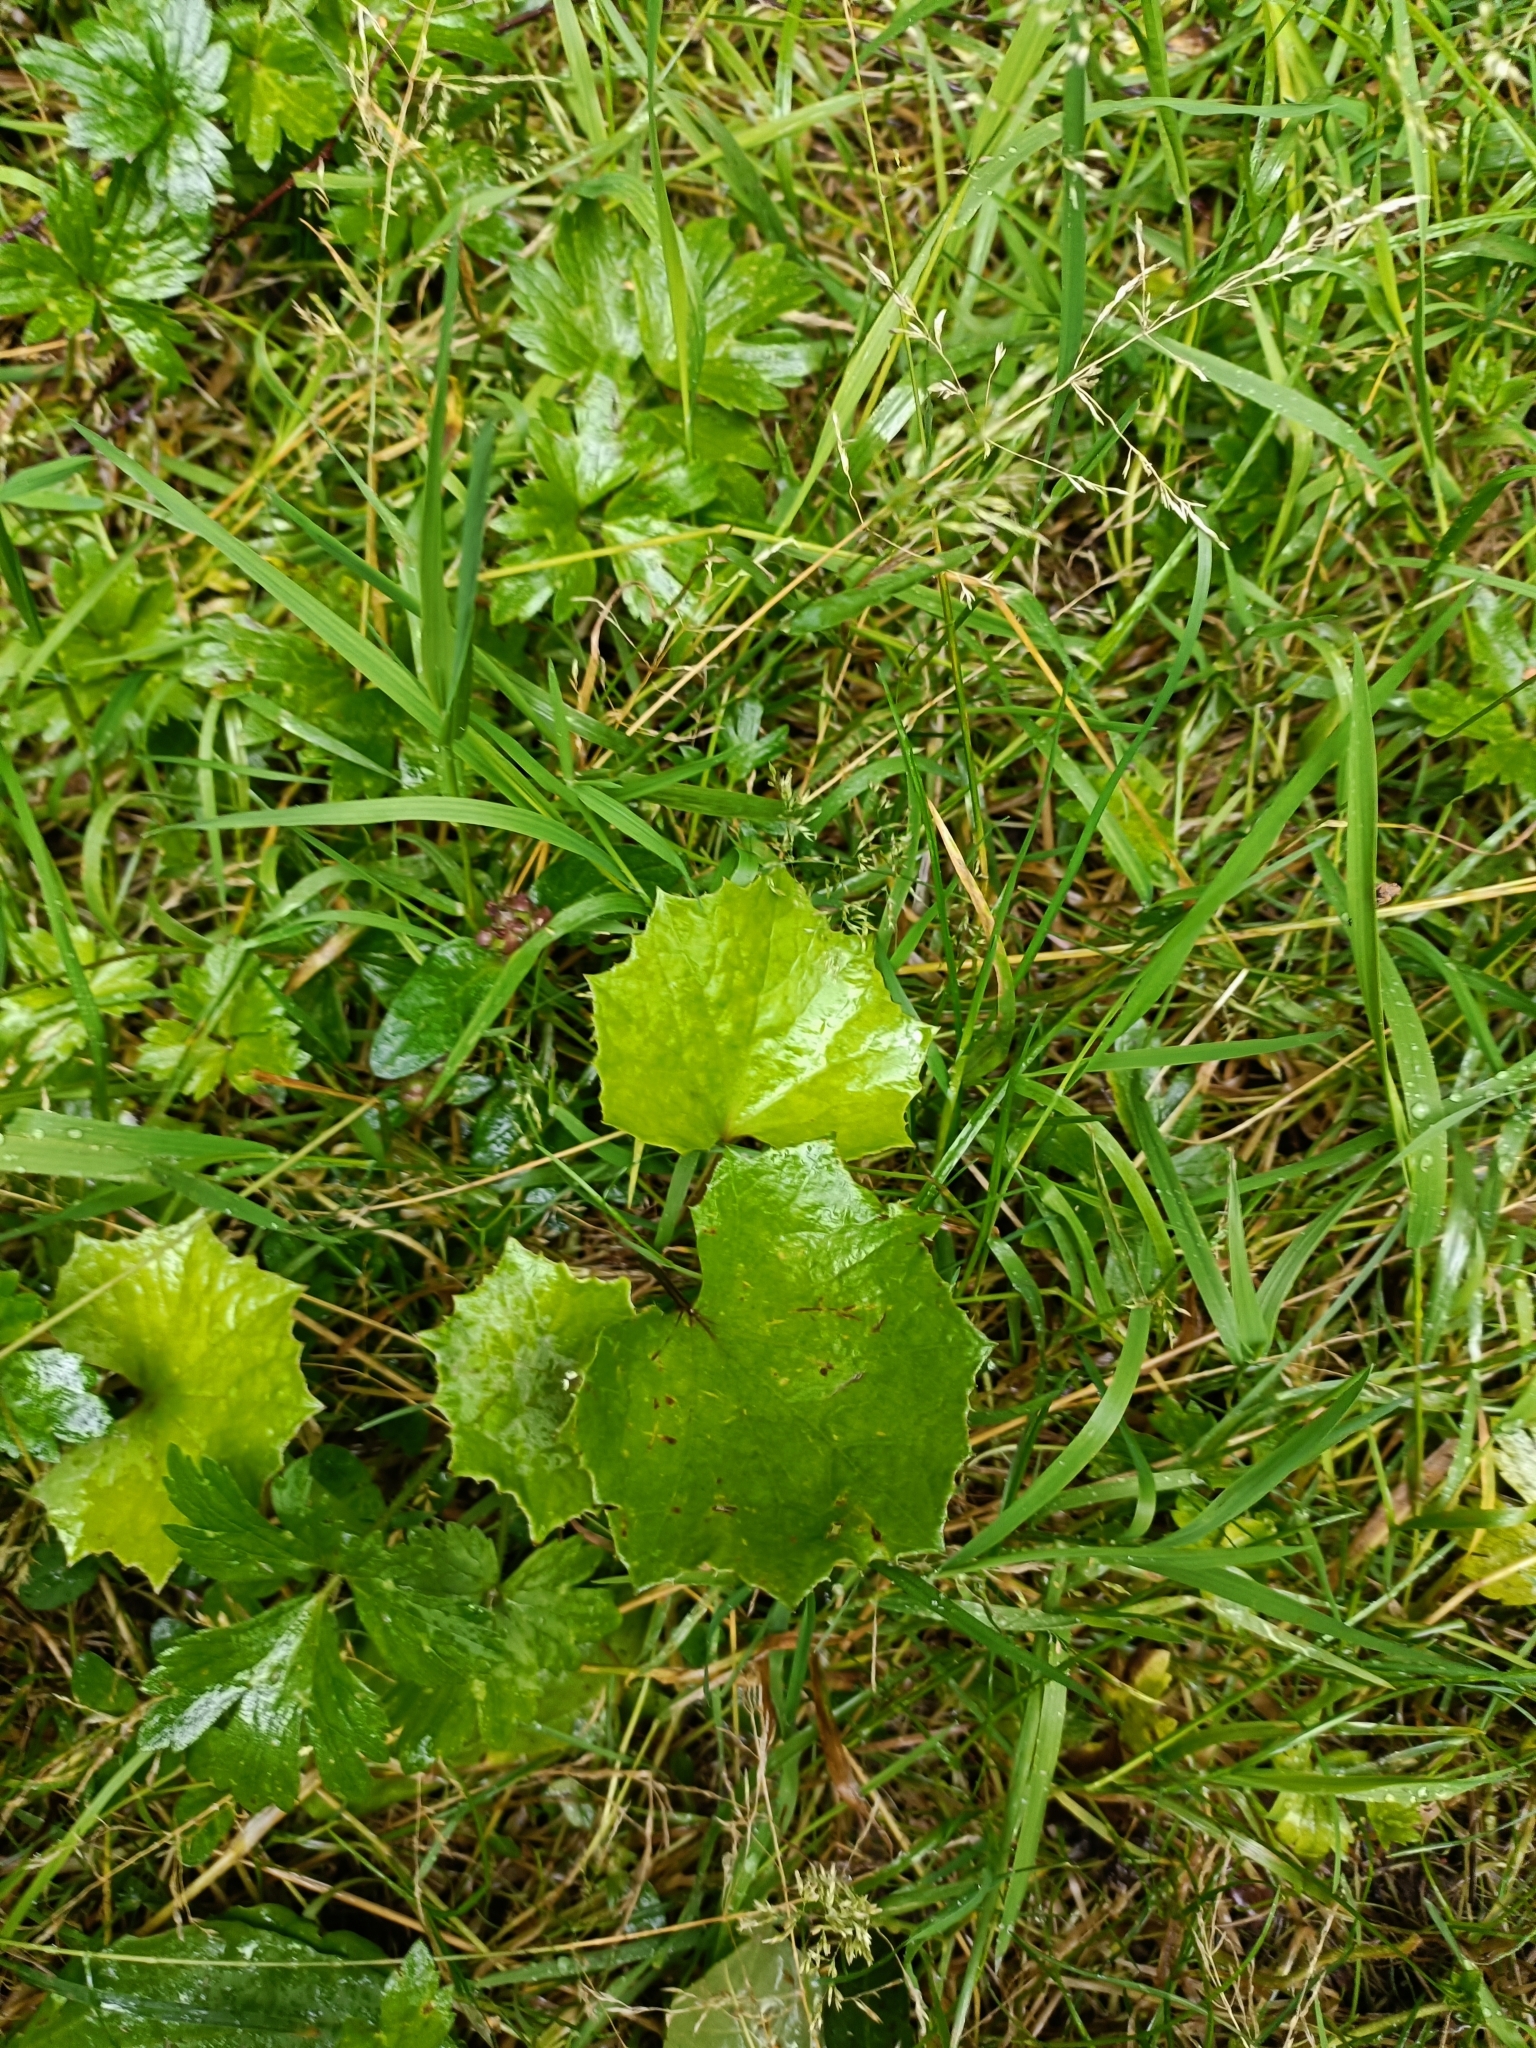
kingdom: Plantae
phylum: Tracheophyta
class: Magnoliopsida
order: Asterales
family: Asteraceae
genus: Tussilago
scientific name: Tussilago farfara
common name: Coltsfoot
